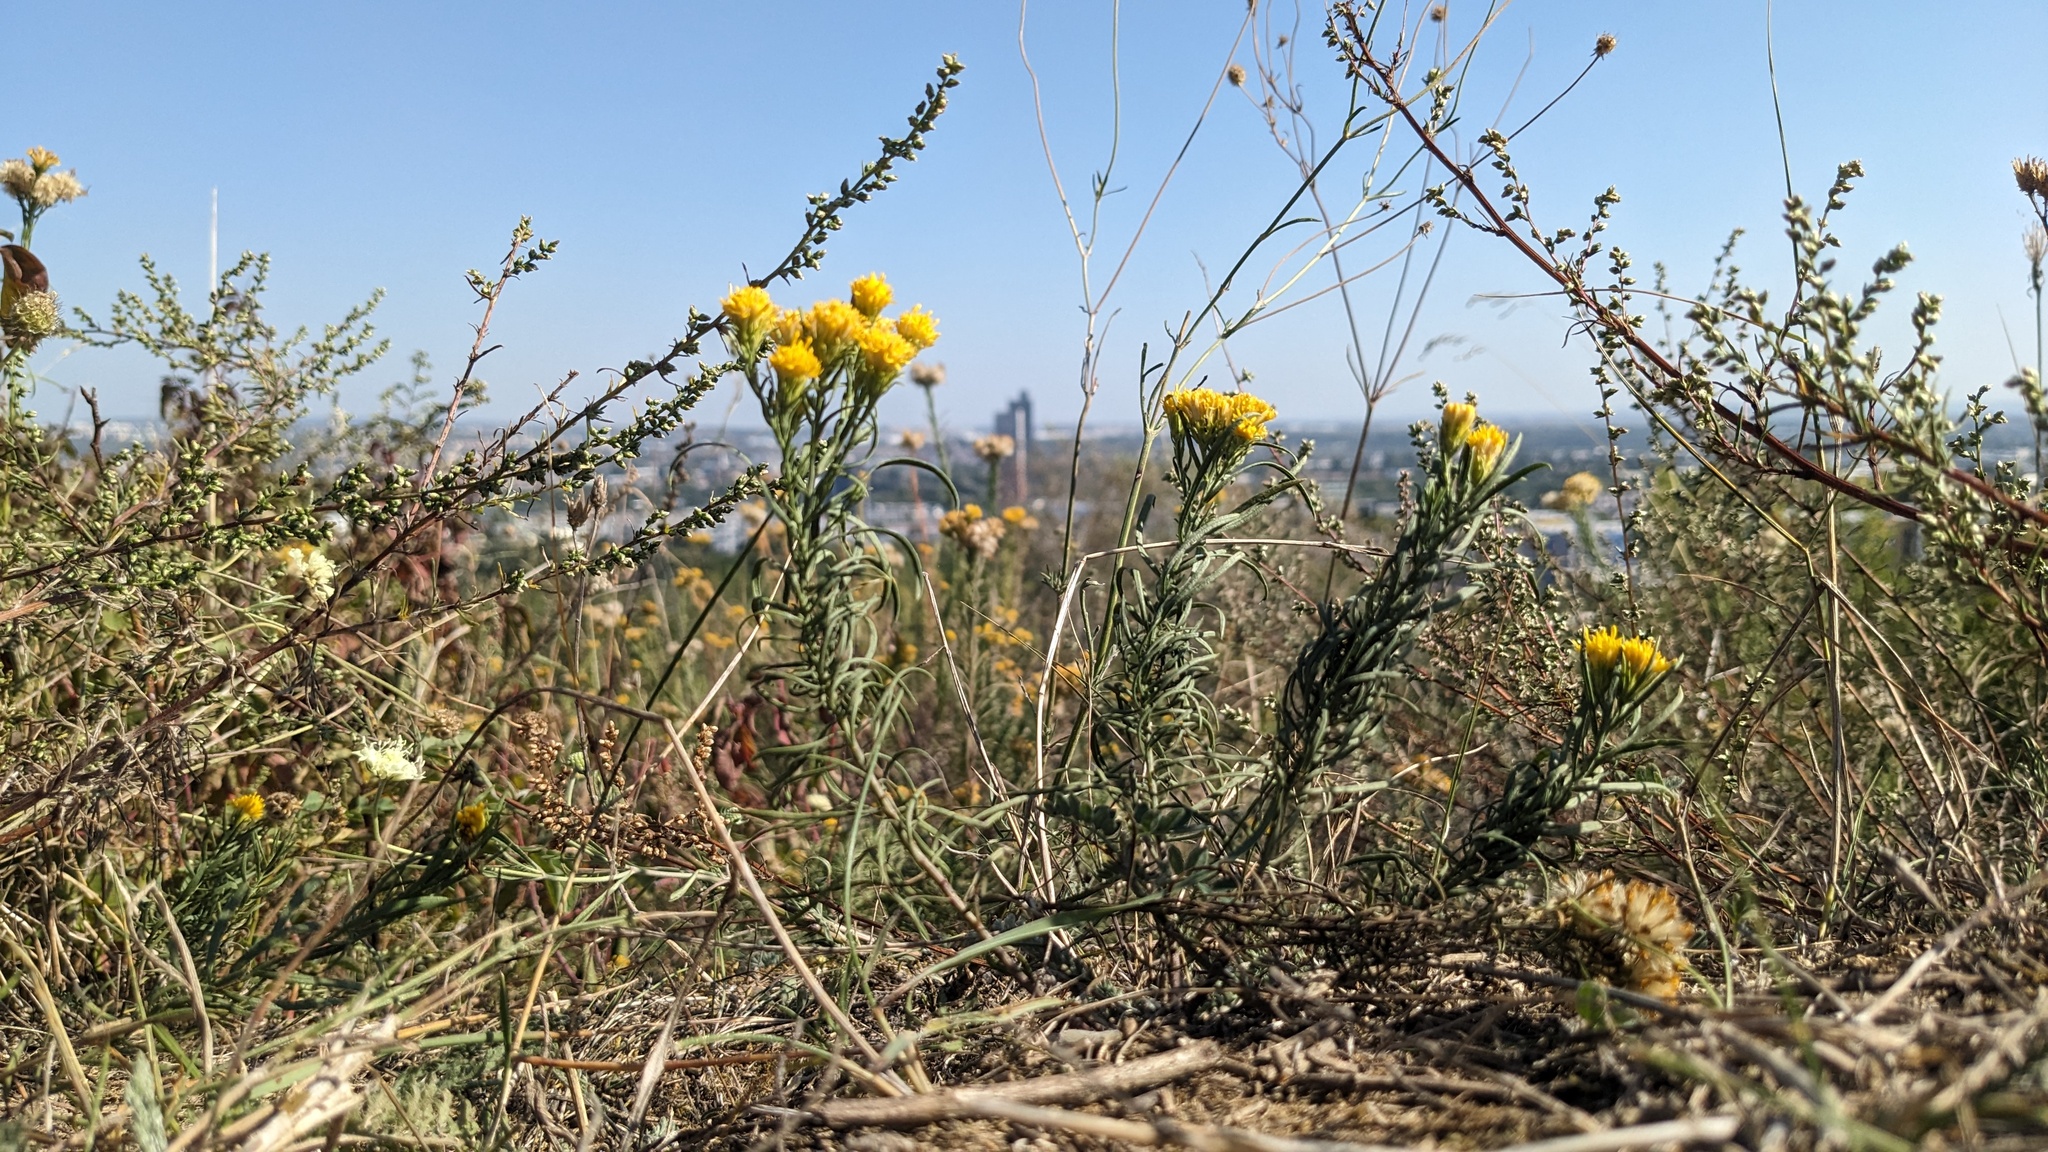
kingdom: Plantae
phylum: Tracheophyta
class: Magnoliopsida
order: Asterales
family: Asteraceae
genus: Galatella
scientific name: Galatella linosyris
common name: Goldilocks aster
